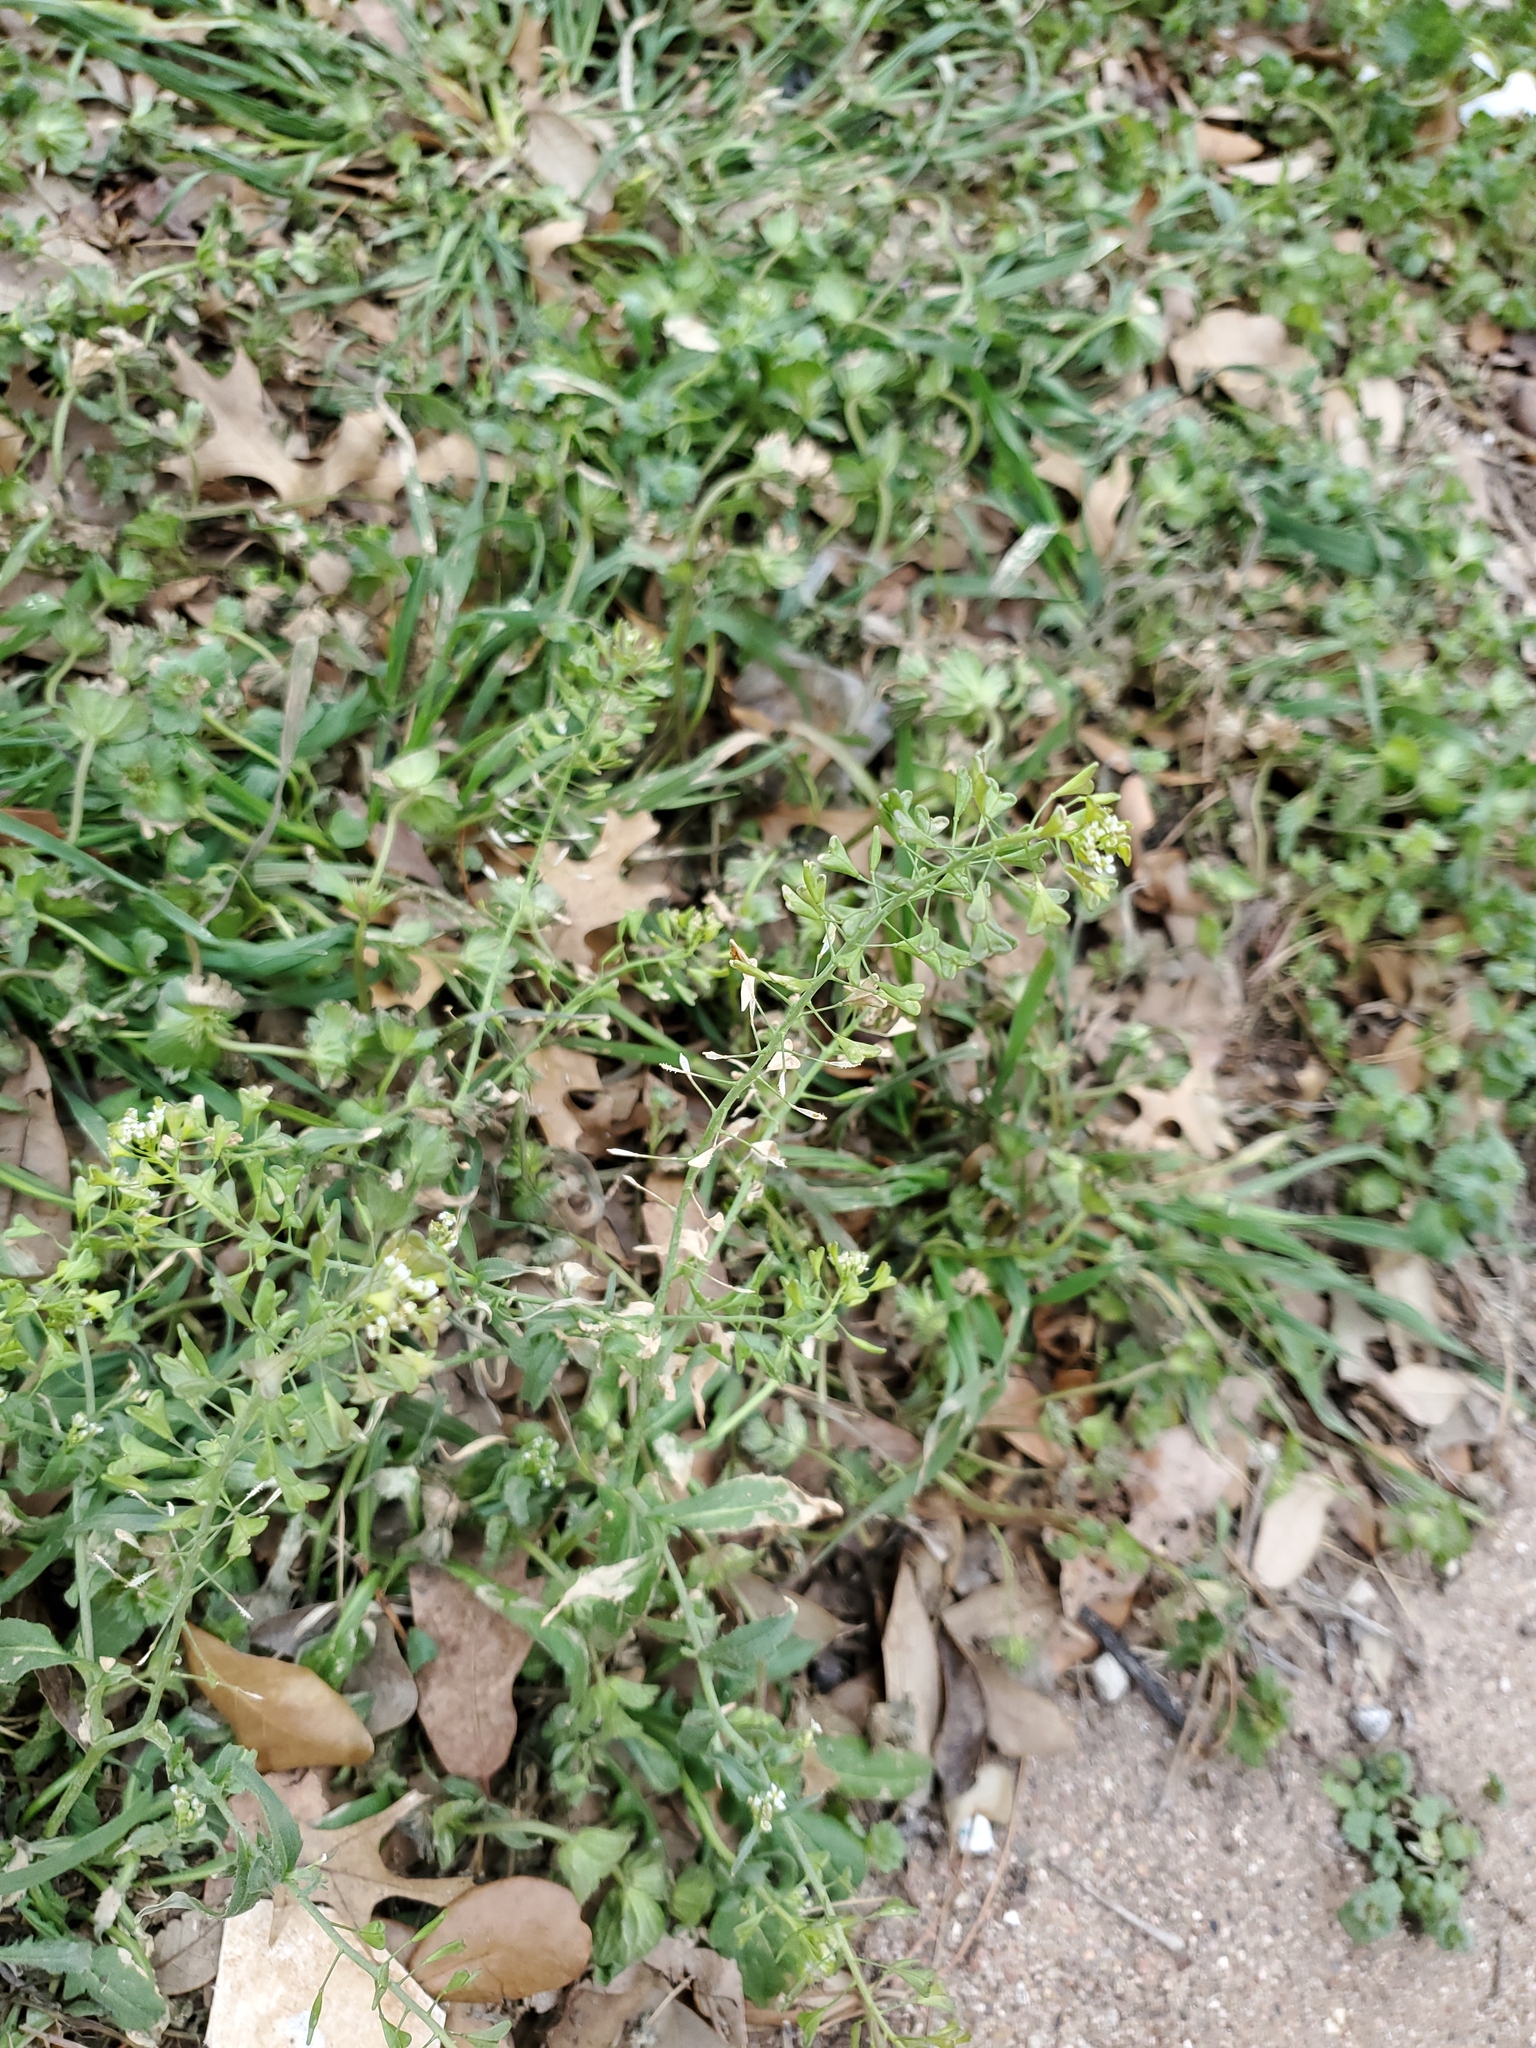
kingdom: Plantae
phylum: Tracheophyta
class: Magnoliopsida
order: Brassicales
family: Brassicaceae
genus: Capsella
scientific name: Capsella bursa-pastoris
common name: Shepherd's purse
